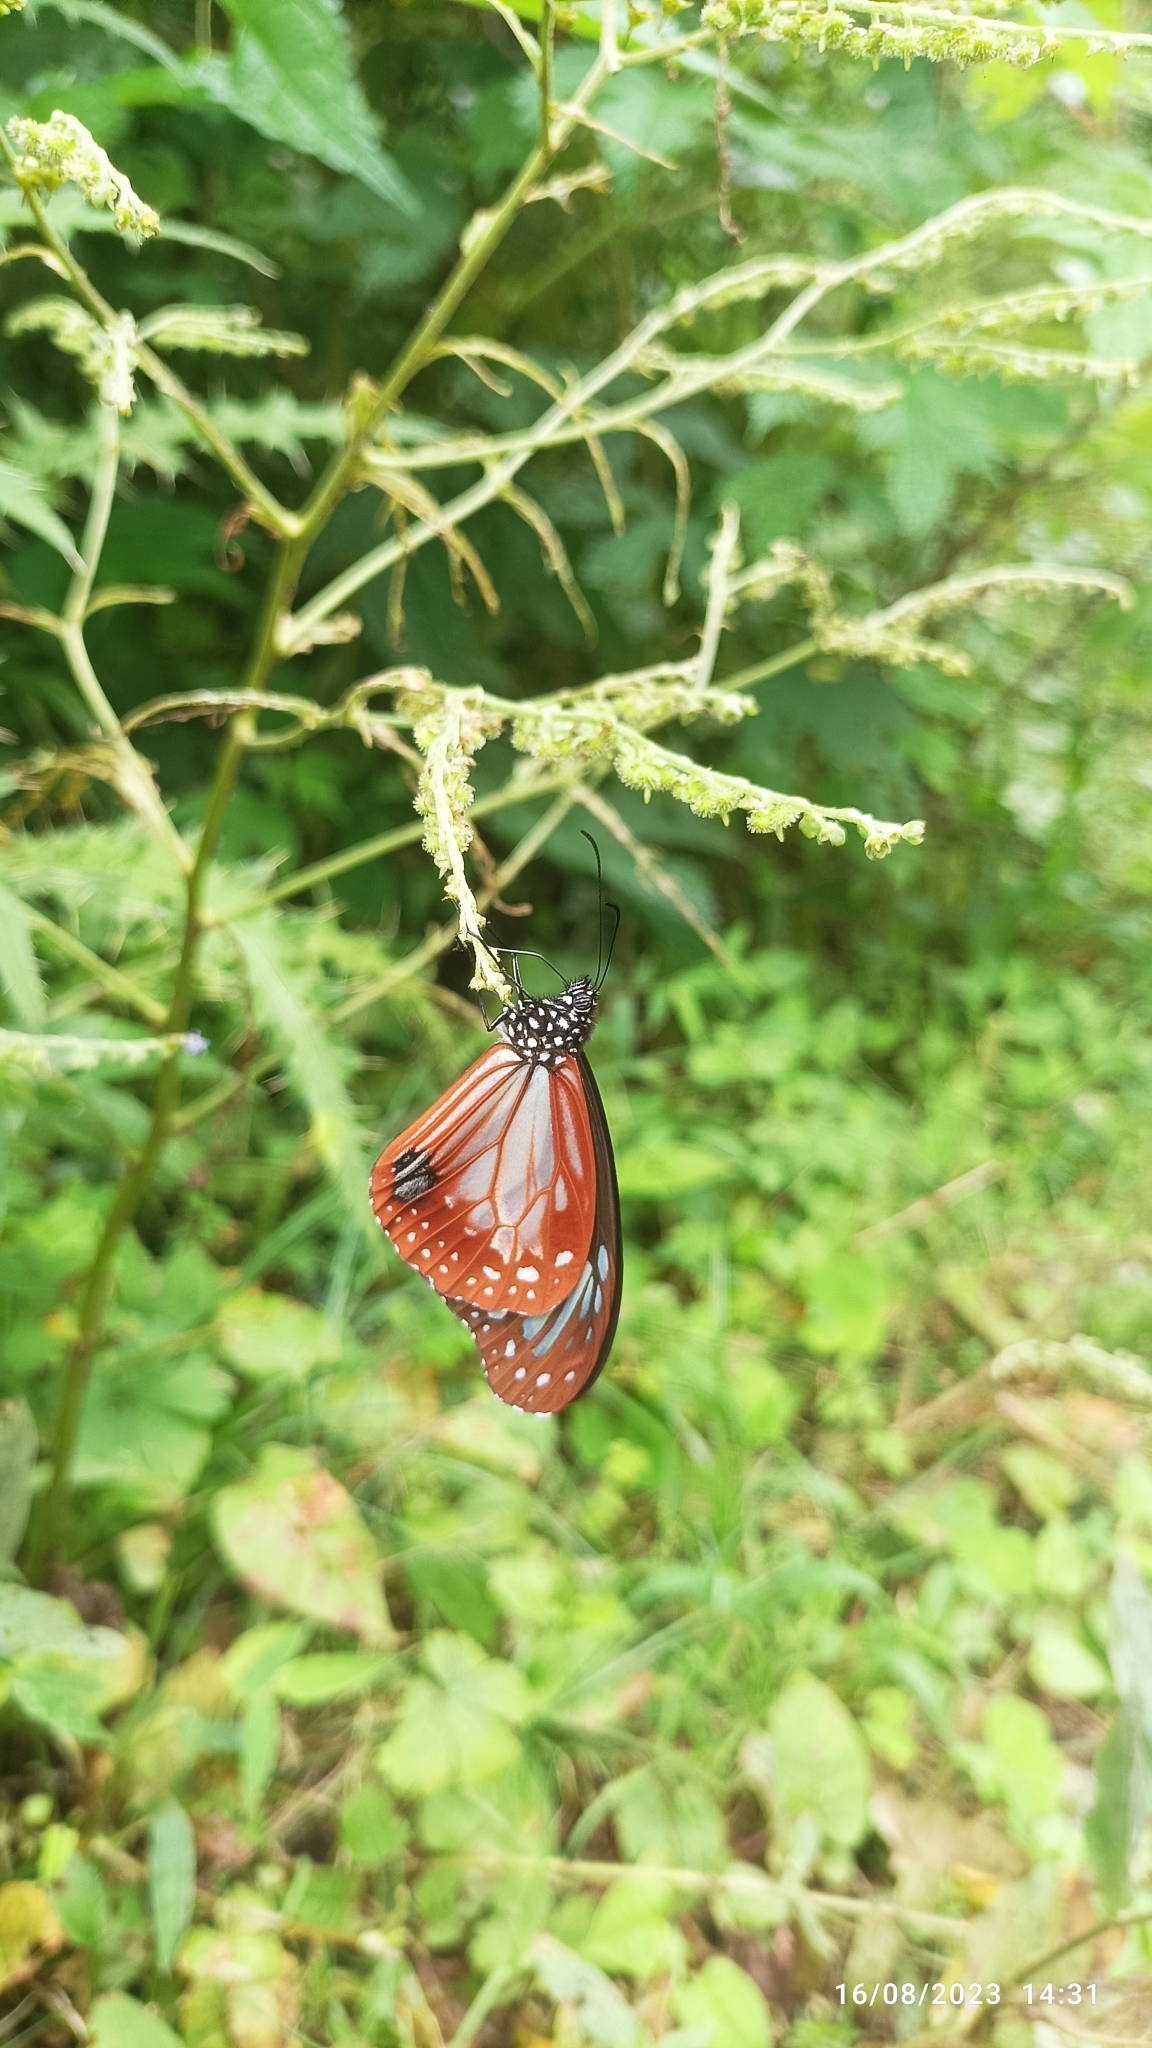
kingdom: Animalia
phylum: Arthropoda
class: Insecta
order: Lepidoptera
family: Nymphalidae
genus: Parantica
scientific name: Parantica sita
